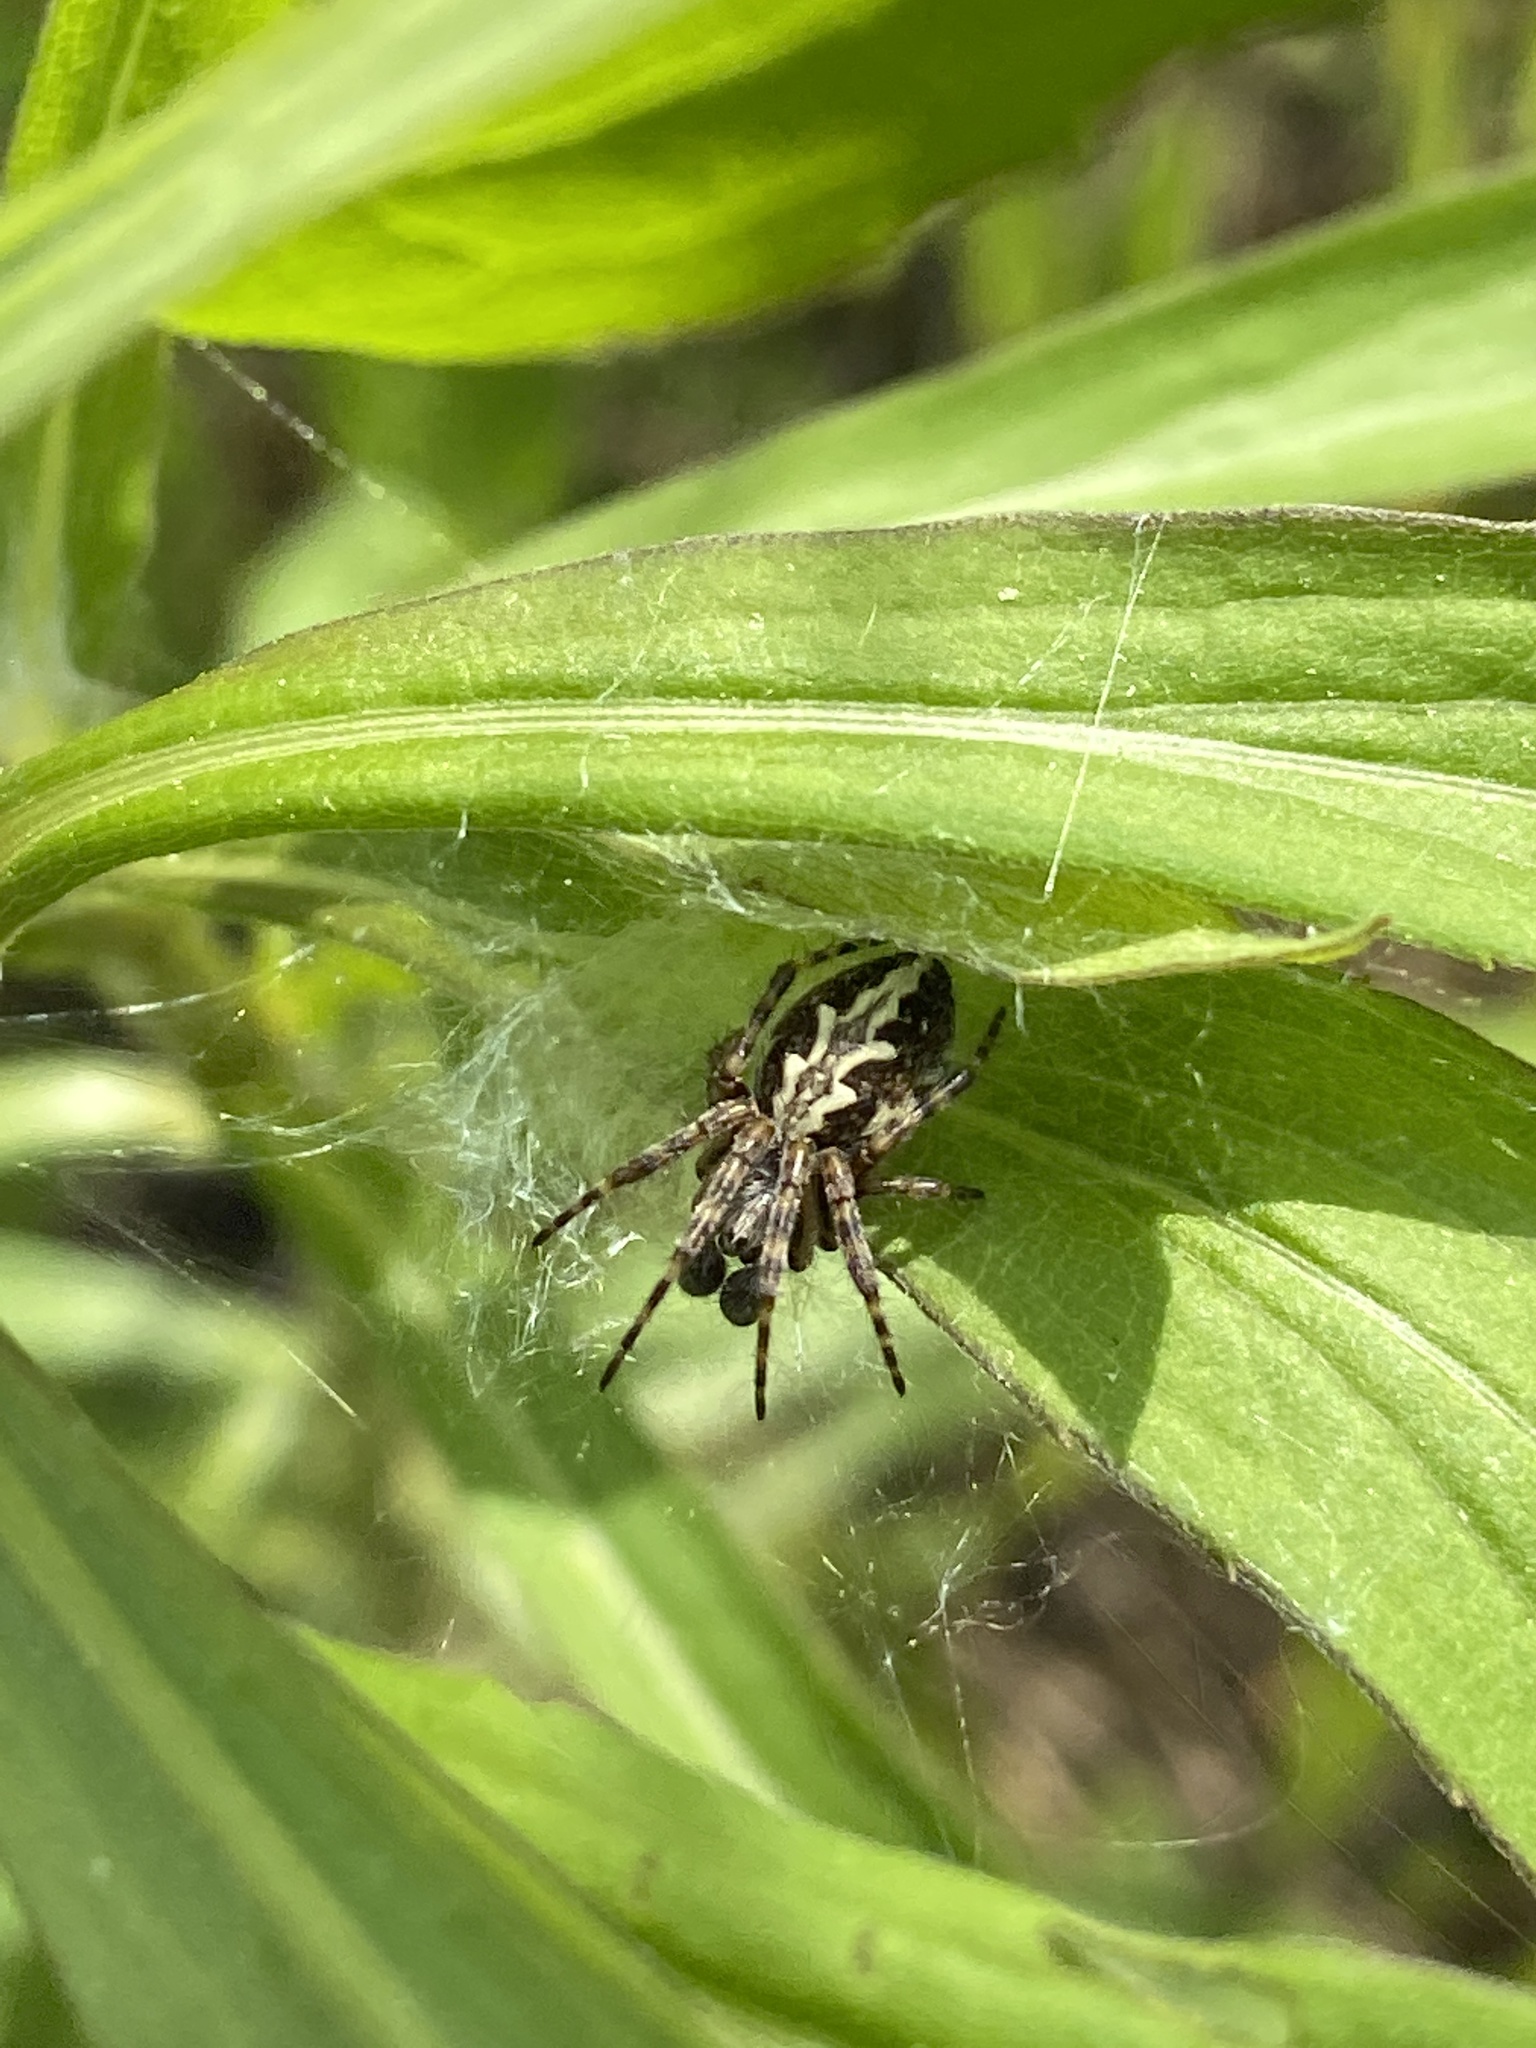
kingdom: Animalia
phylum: Arthropoda
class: Arachnida
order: Araneae
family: Araneidae
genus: Aculepeira
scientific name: Aculepeira ceropegia
